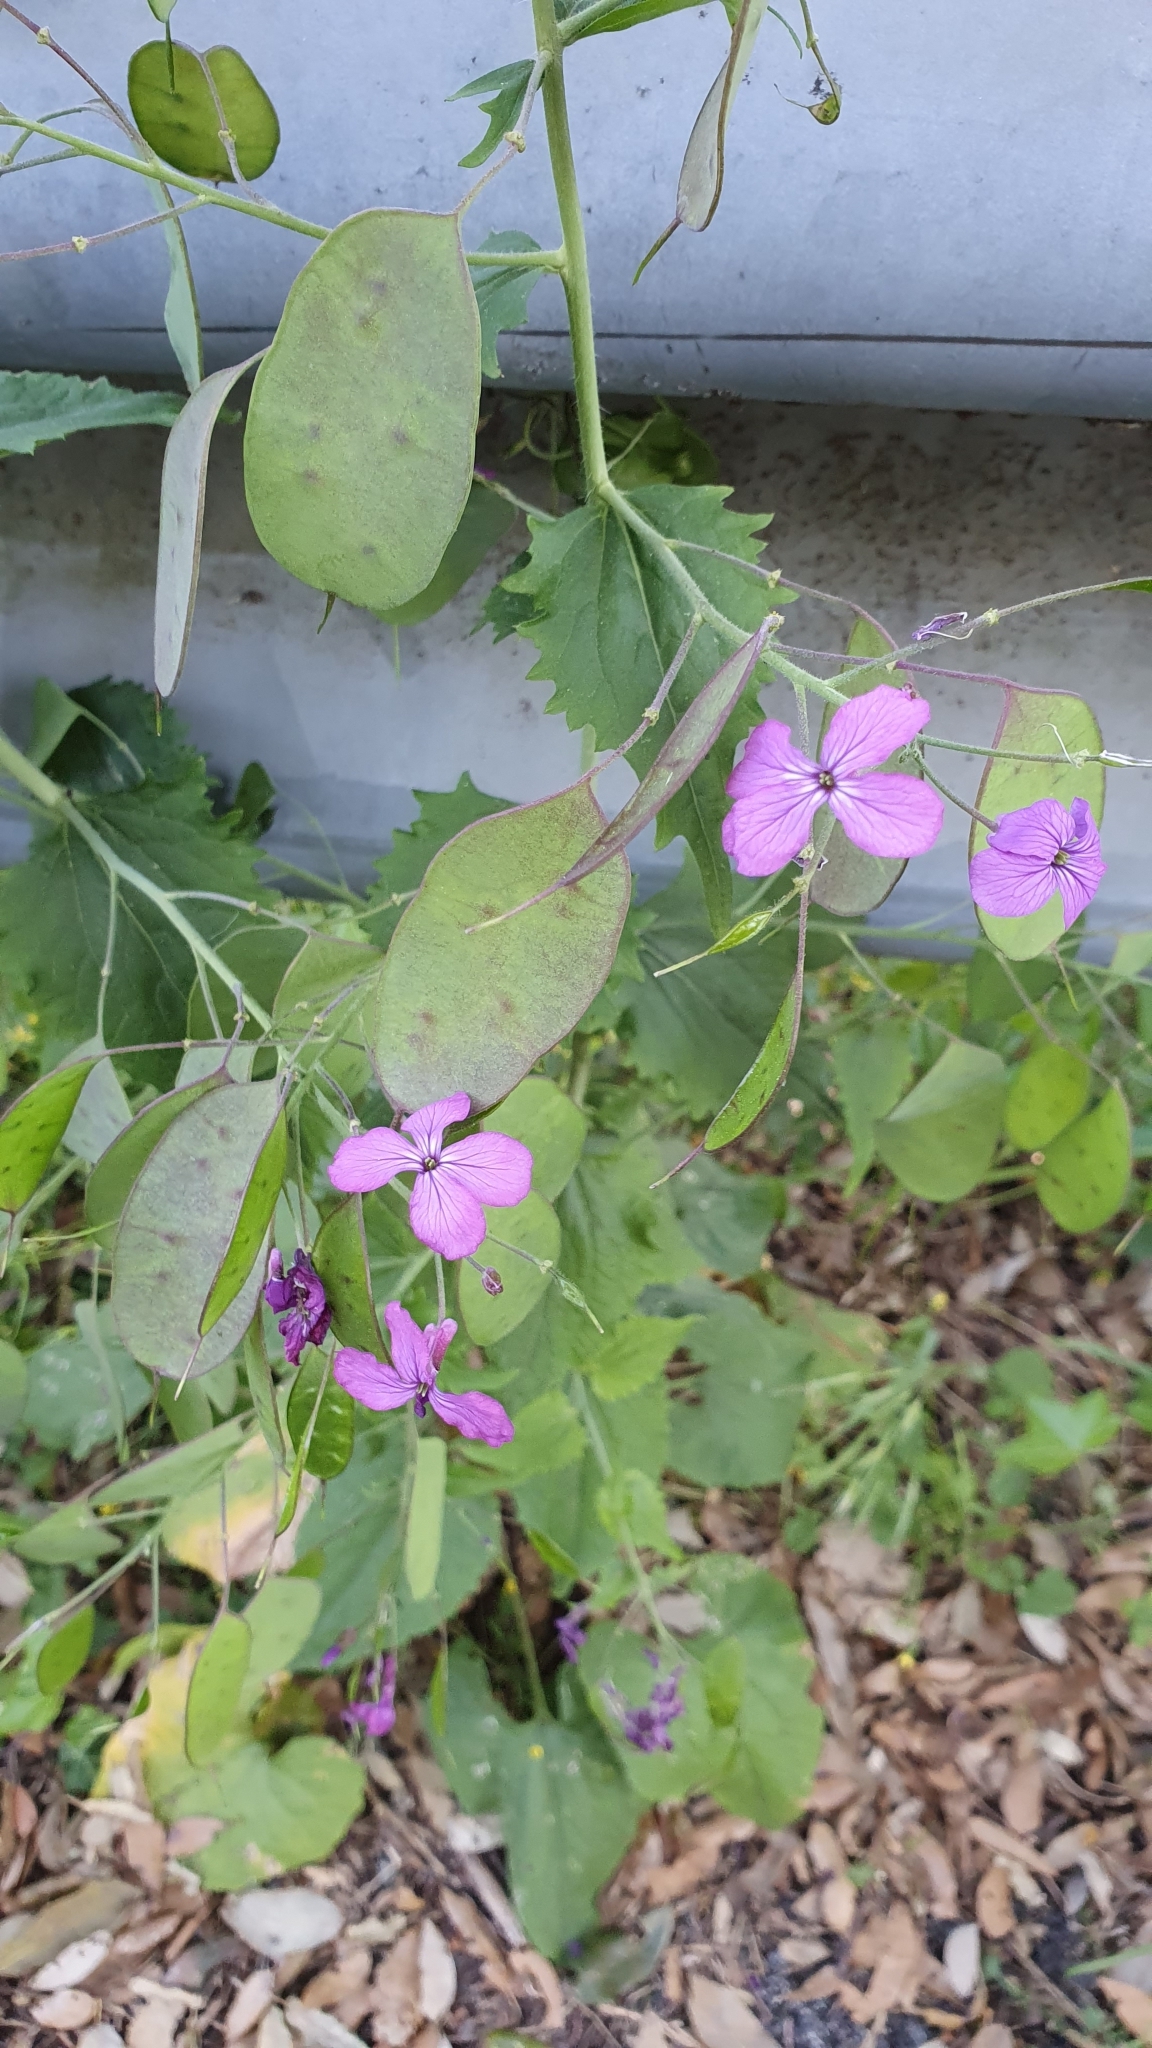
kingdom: Plantae
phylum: Tracheophyta
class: Magnoliopsida
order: Brassicales
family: Brassicaceae
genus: Lunaria
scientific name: Lunaria annua
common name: Honesty
